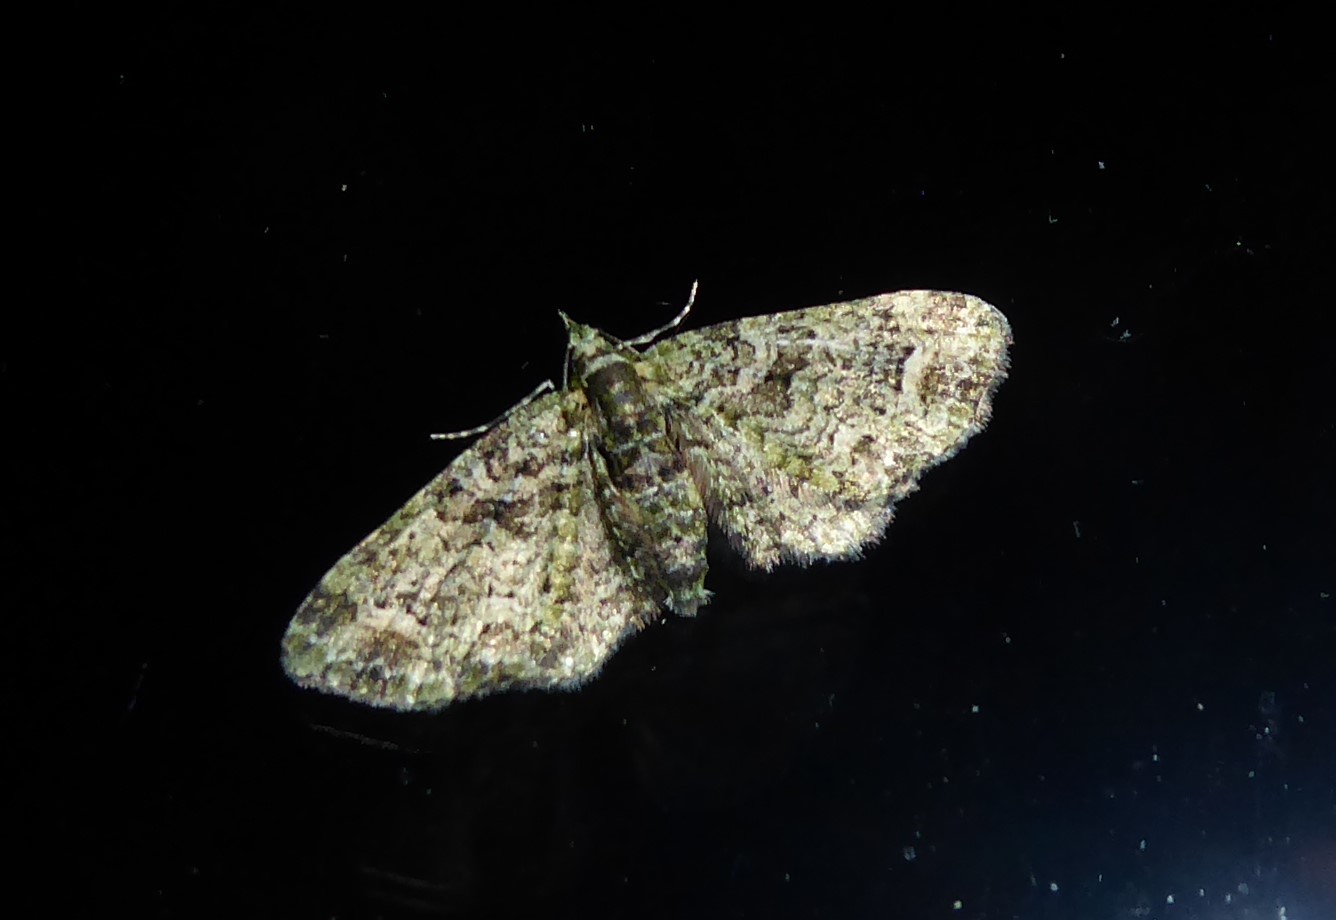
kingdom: Animalia
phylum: Arthropoda
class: Insecta
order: Lepidoptera
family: Geometridae
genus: Idaea
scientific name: Idaea mutanda
